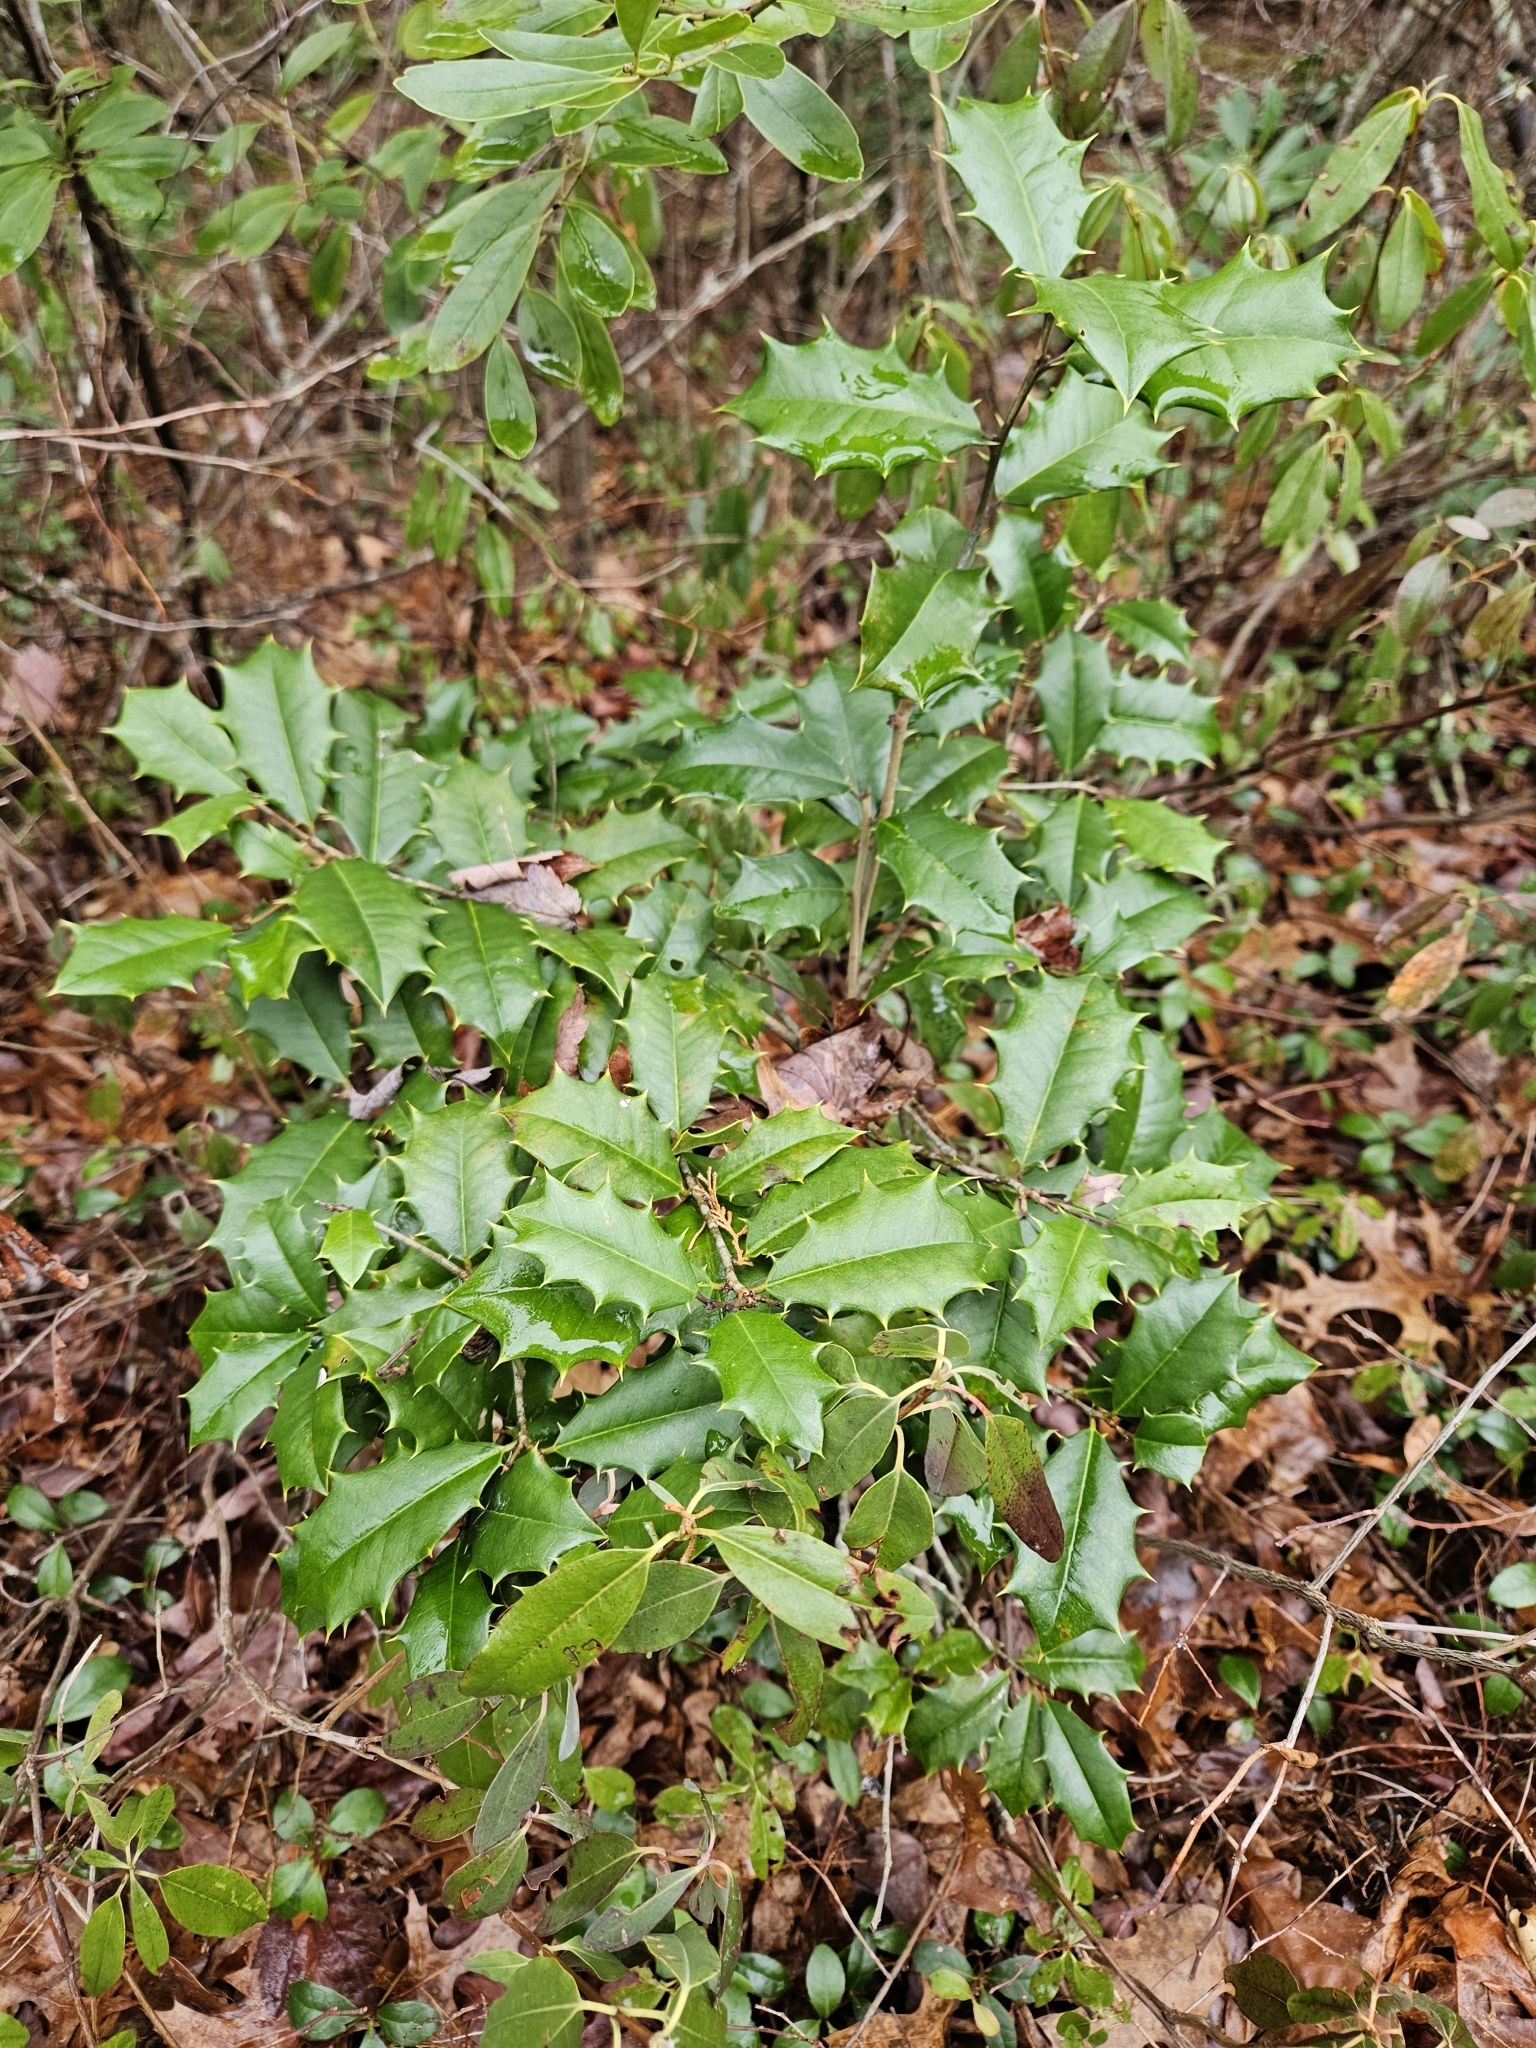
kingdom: Plantae
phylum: Tracheophyta
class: Magnoliopsida
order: Aquifoliales
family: Aquifoliaceae
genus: Ilex
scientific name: Ilex opaca
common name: American holly
